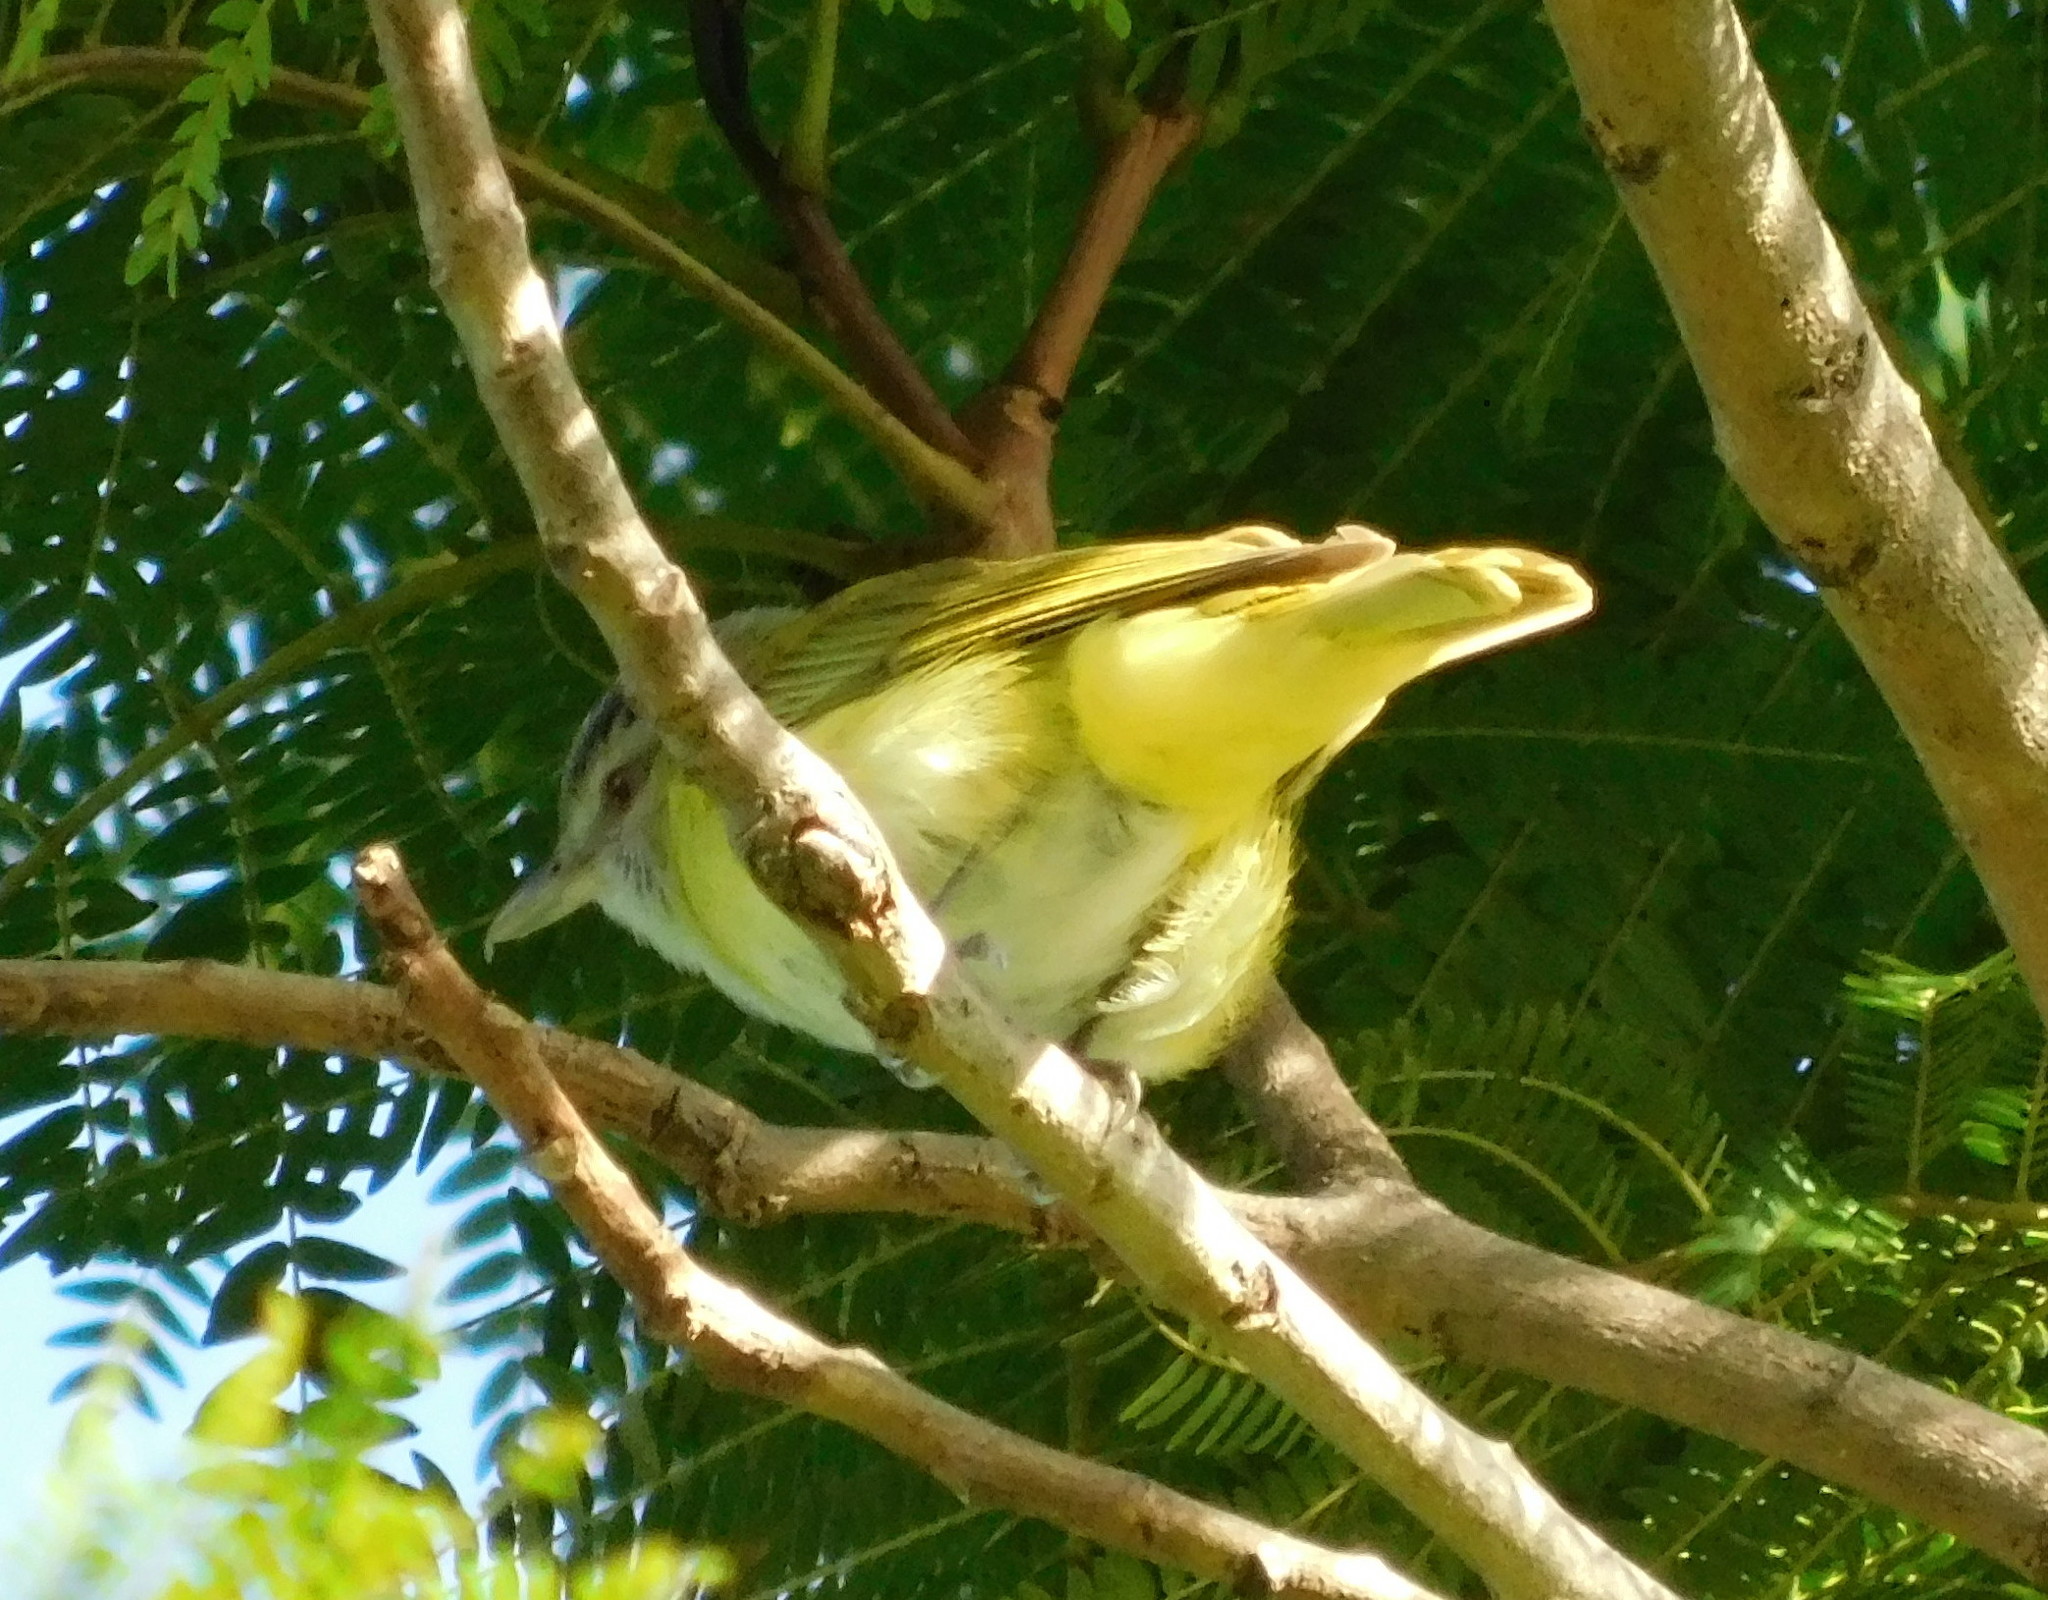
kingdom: Animalia
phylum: Chordata
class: Aves
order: Passeriformes
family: Vireonidae
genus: Vireo
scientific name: Vireo flavoviridis
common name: Yellow-green vireo
